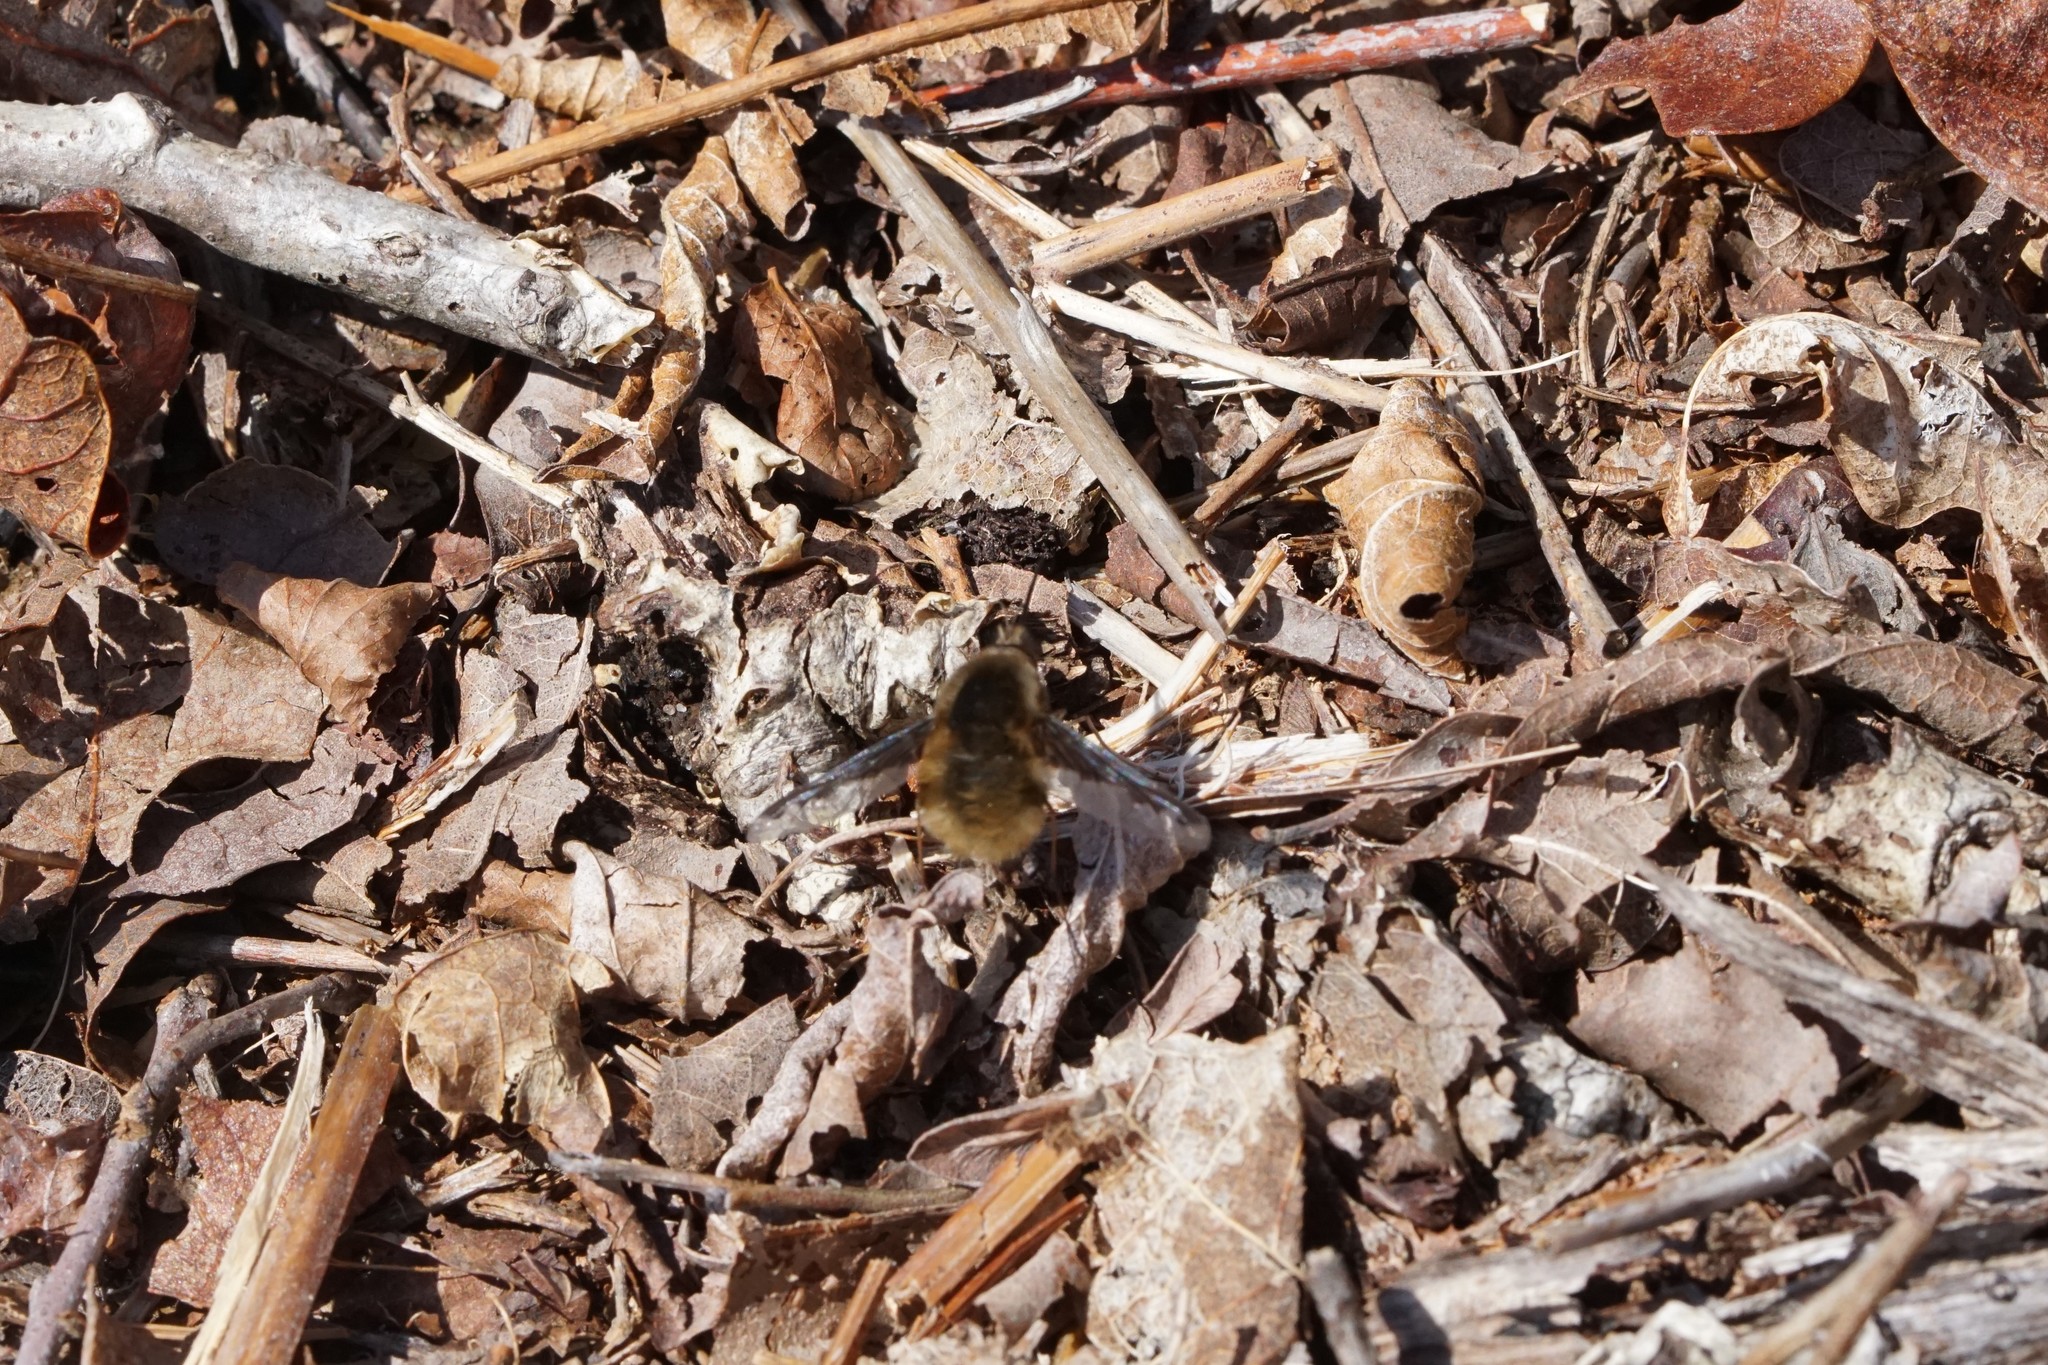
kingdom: Animalia
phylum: Arthropoda
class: Insecta
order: Diptera
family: Bombyliidae
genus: Bombylius
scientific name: Bombylius major
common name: Bee fly
